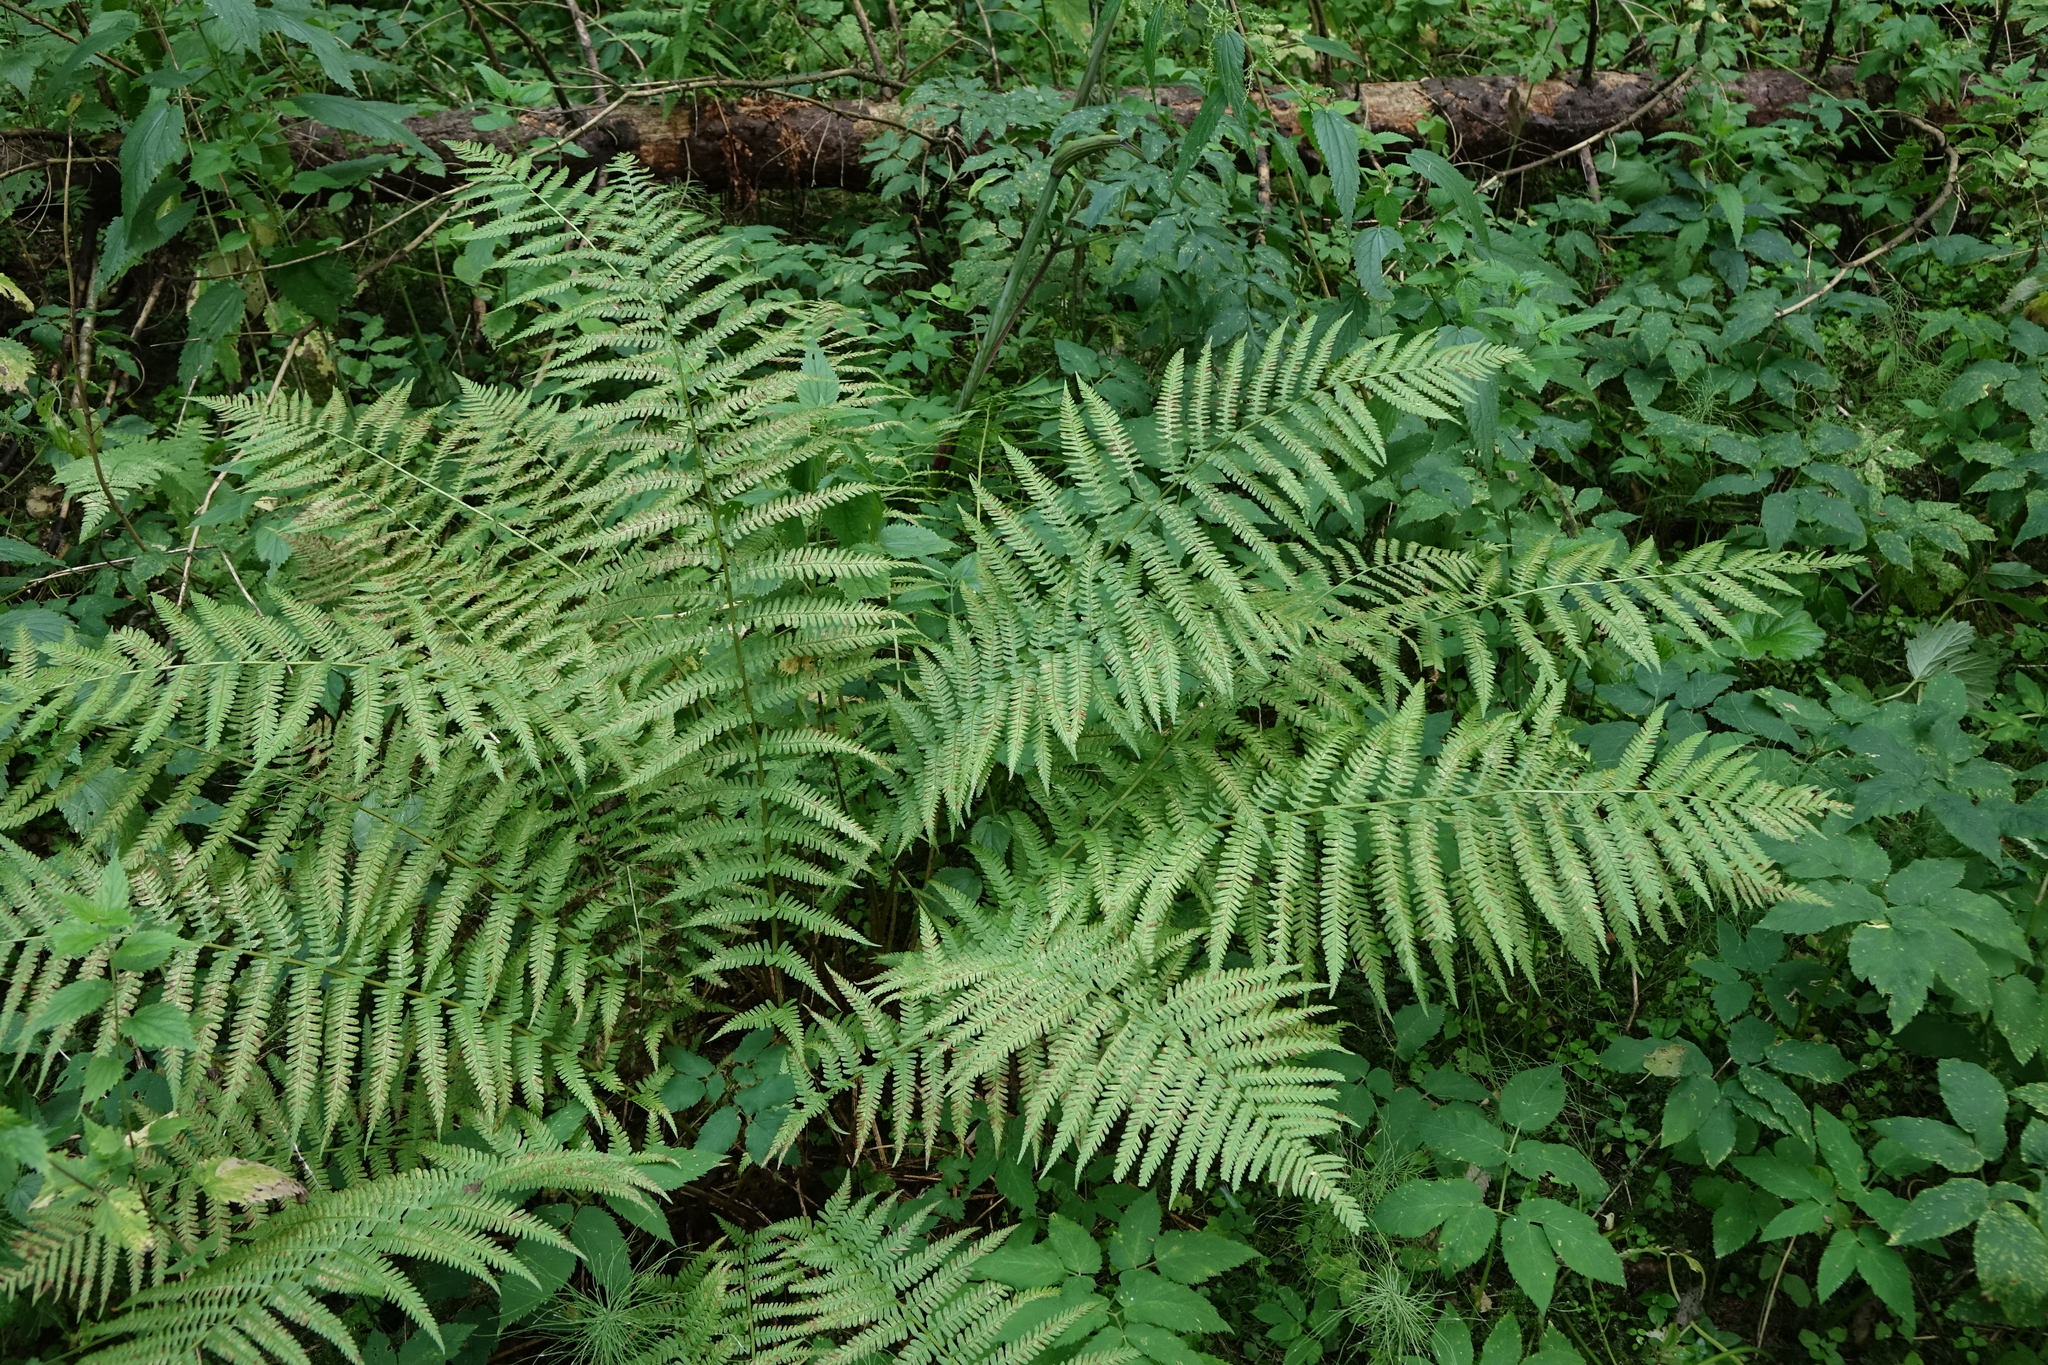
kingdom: Plantae
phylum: Tracheophyta
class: Polypodiopsida
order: Polypodiales
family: Dryopteridaceae
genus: Dryopteris
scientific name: Dryopteris filix-mas
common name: Male fern
